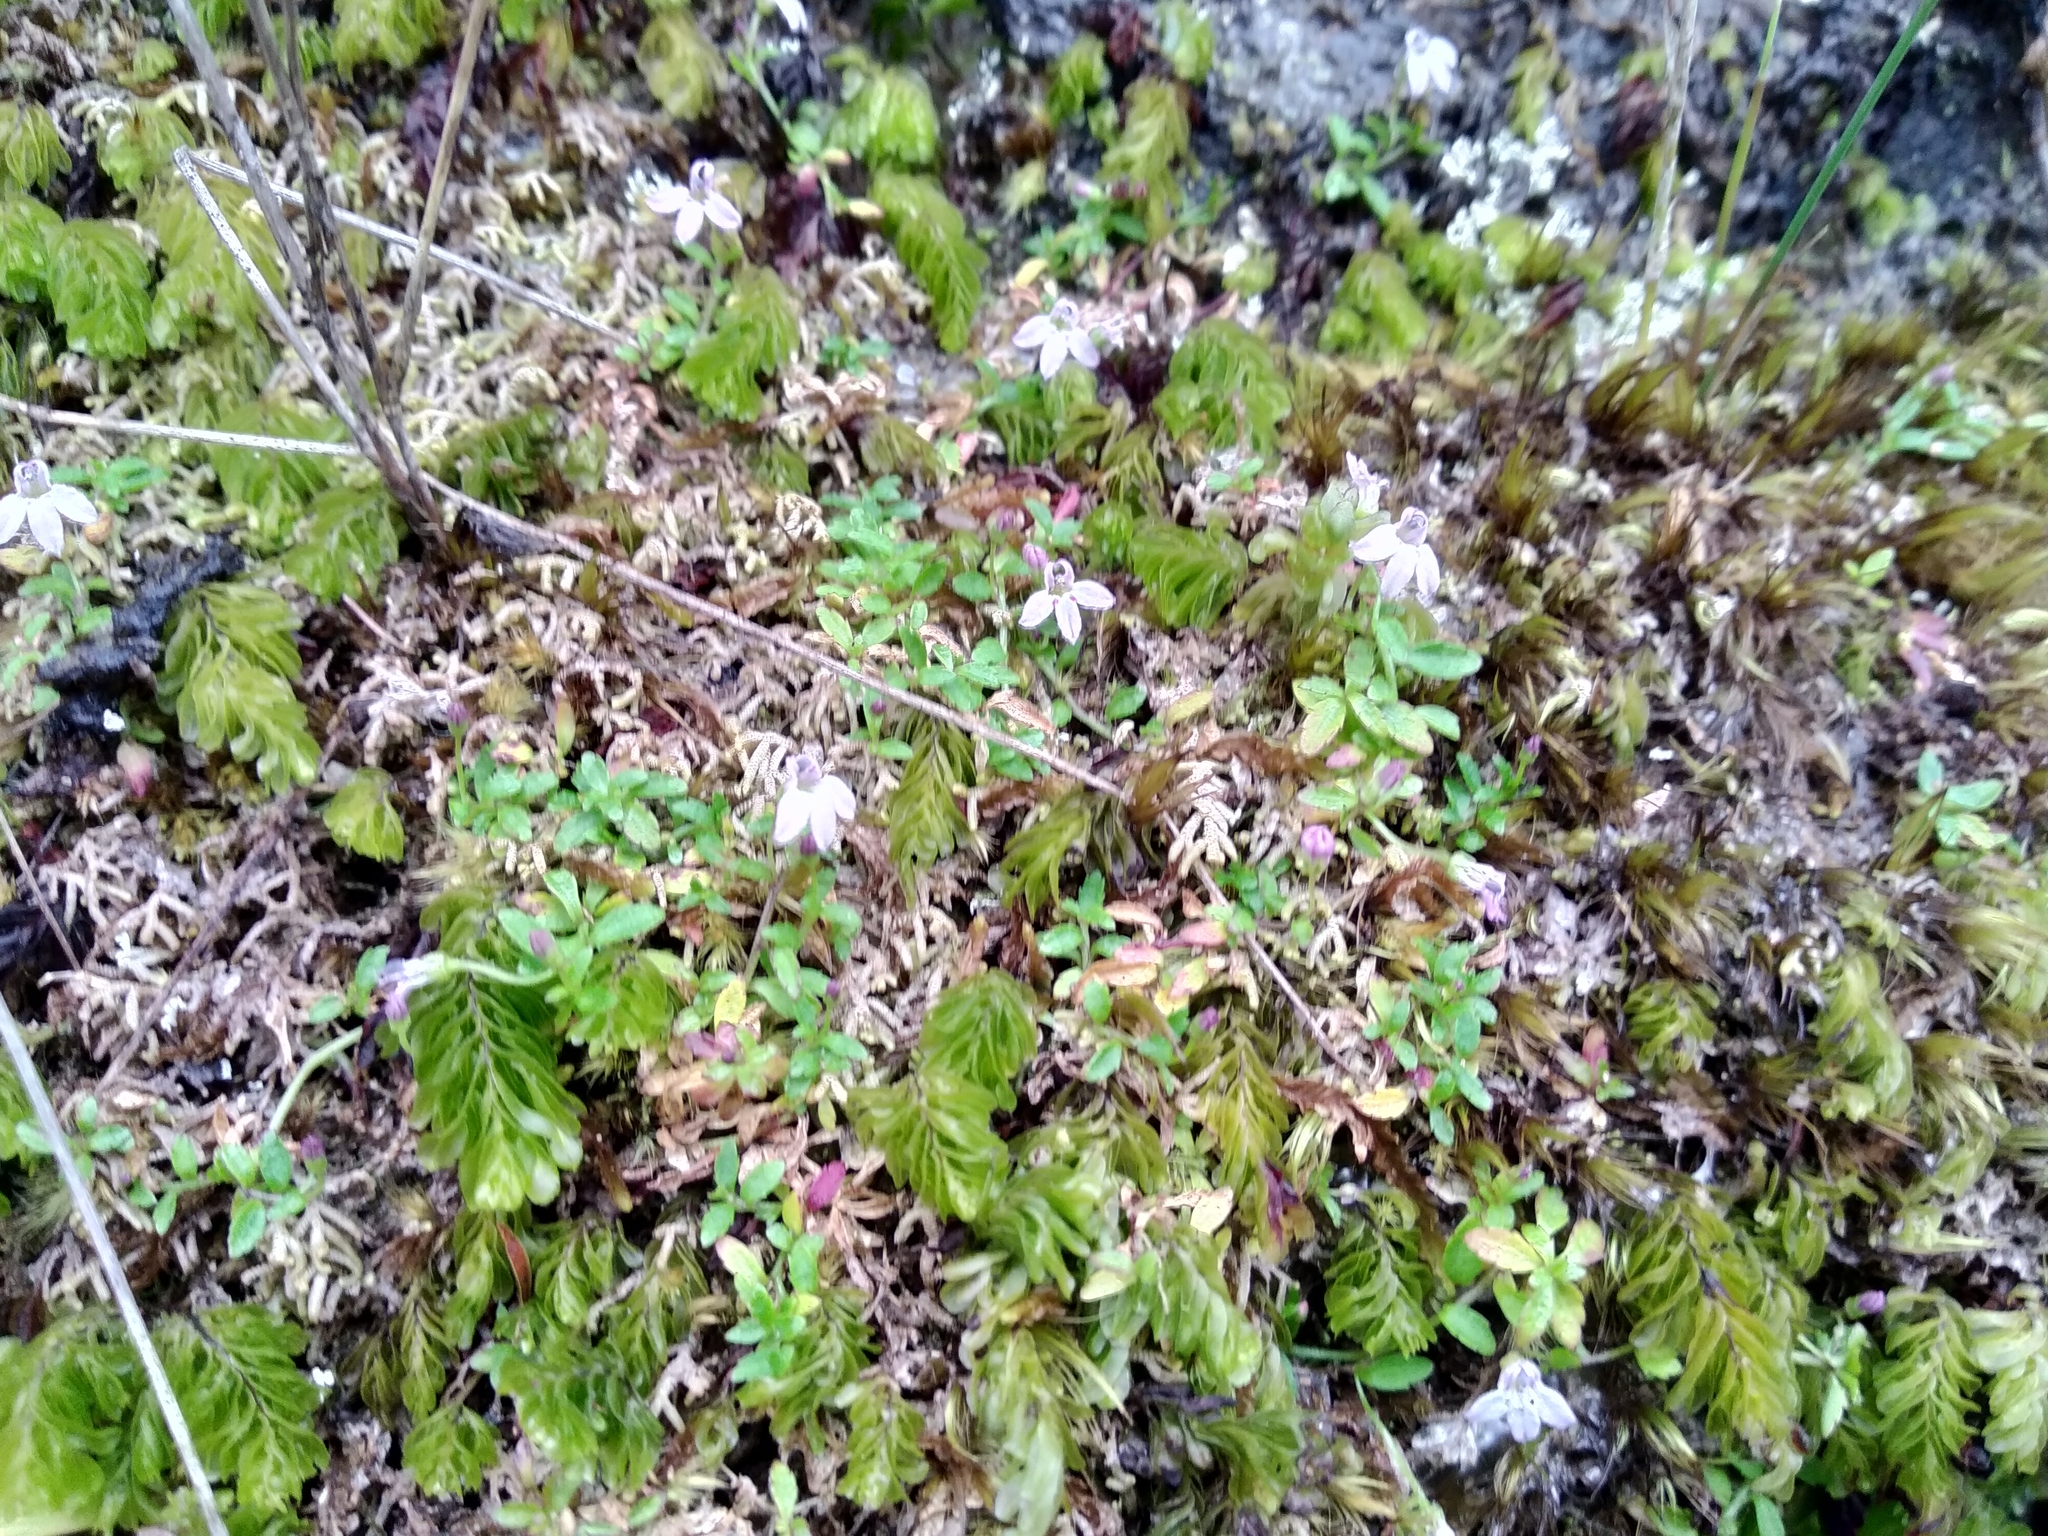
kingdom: Plantae
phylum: Tracheophyta
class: Magnoliopsida
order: Asterales
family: Campanulaceae
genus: Unigenes
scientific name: Unigenes humifusa
